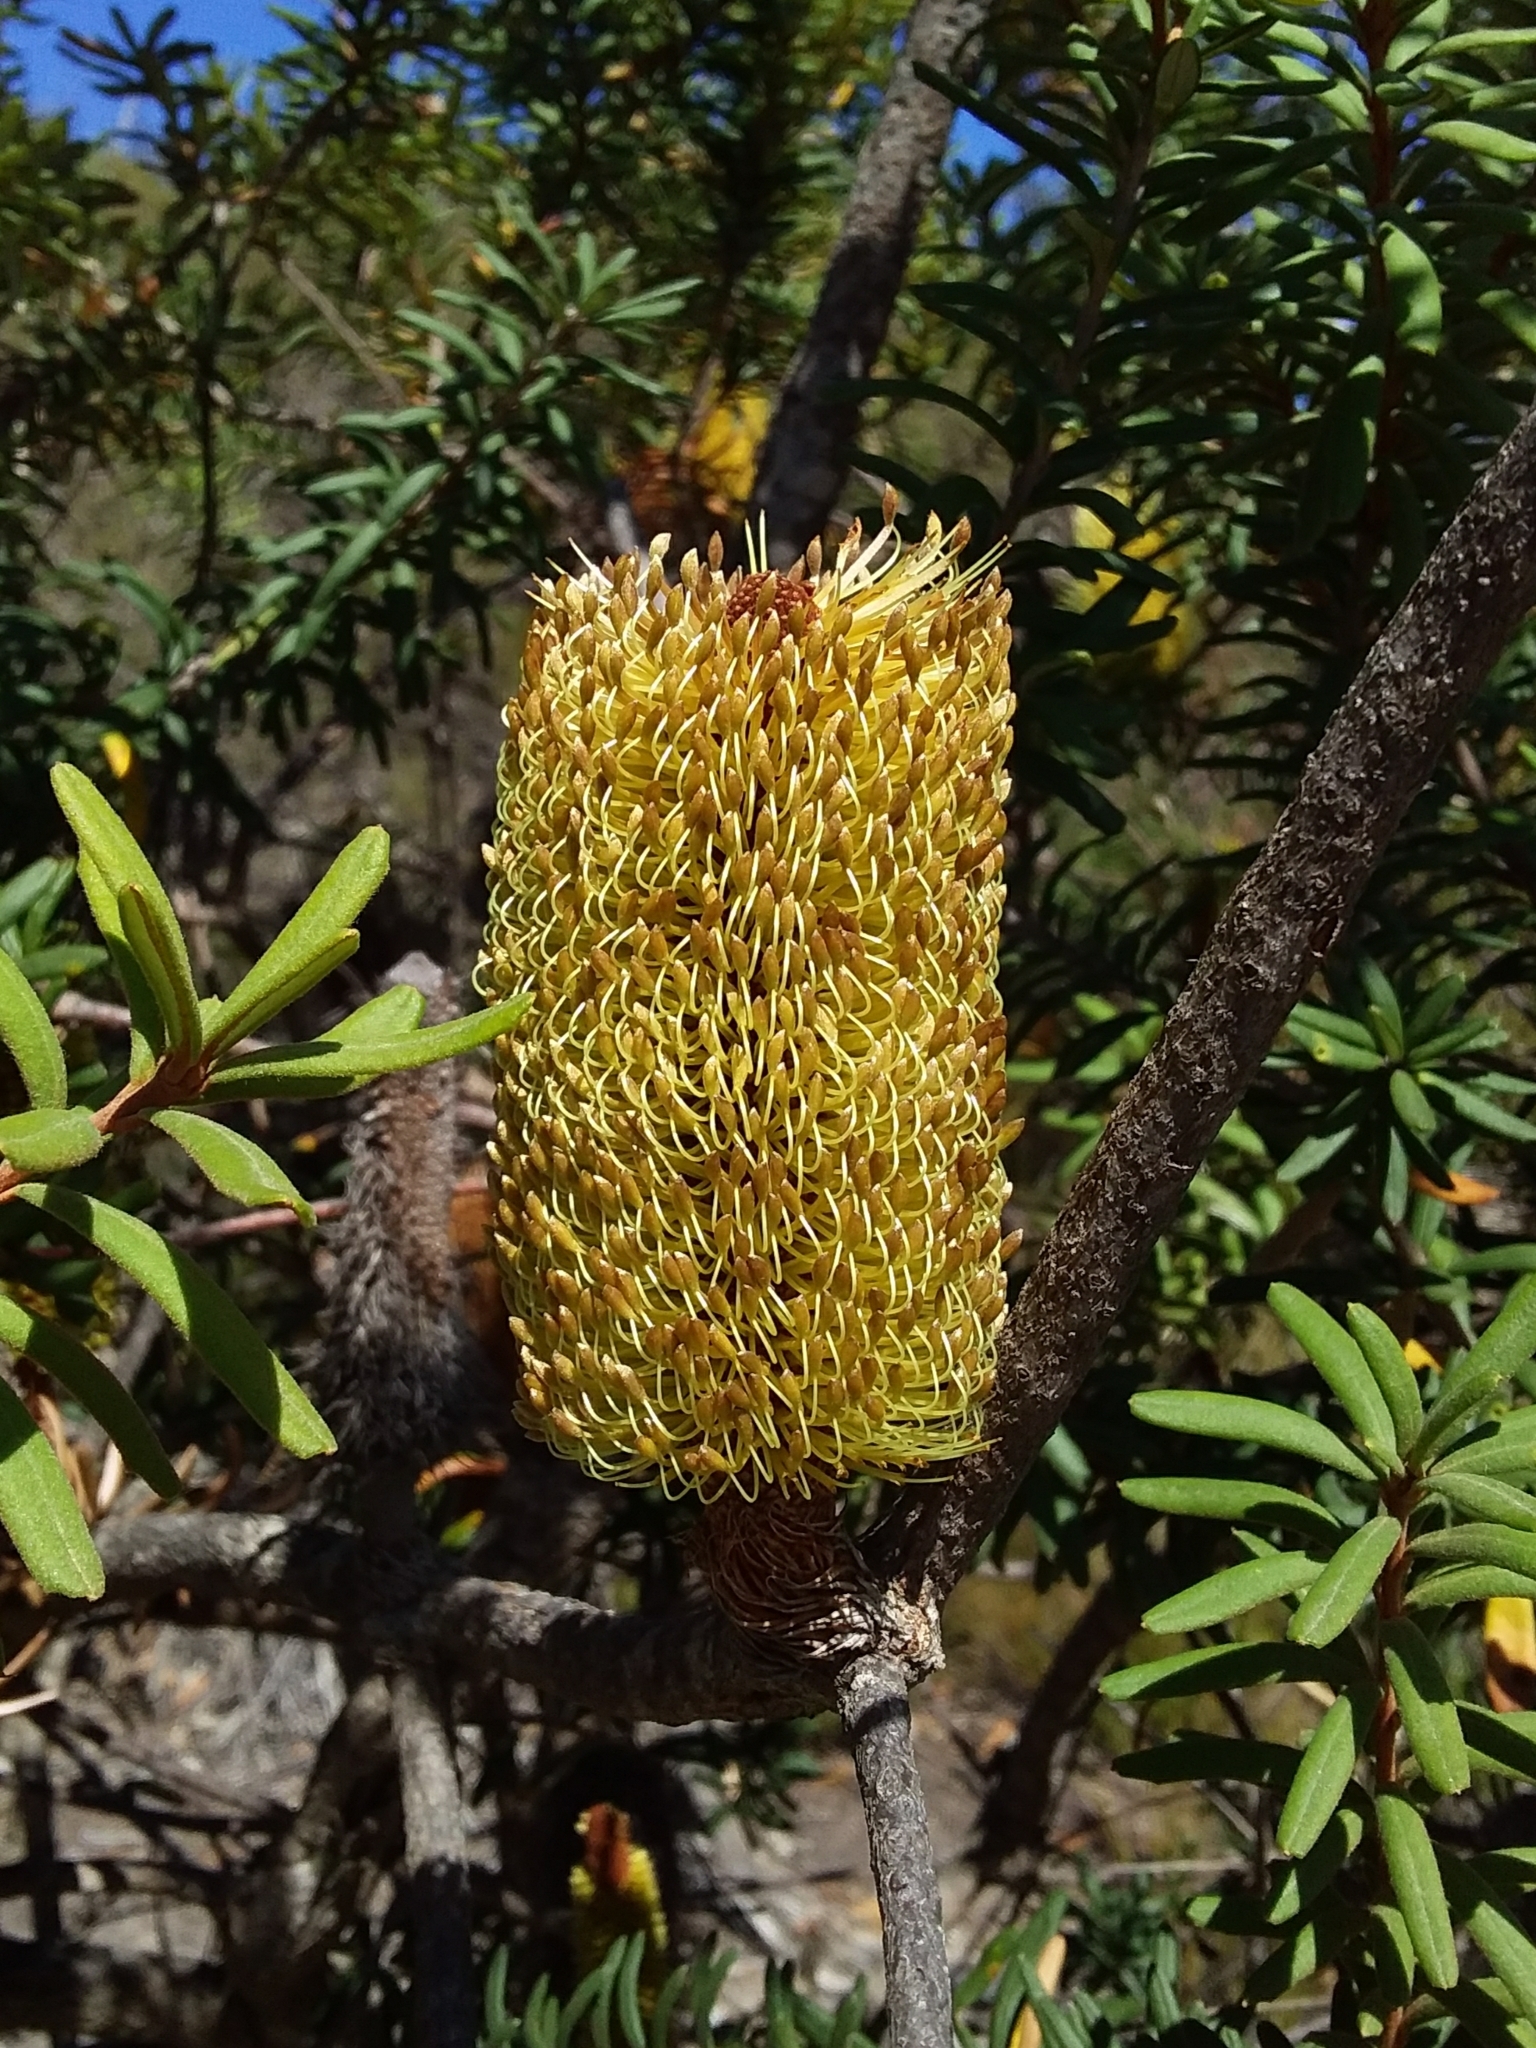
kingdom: Plantae
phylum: Tracheophyta
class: Magnoliopsida
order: Proteales
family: Proteaceae
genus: Banksia
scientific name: Banksia marginata
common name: Silver banksia
